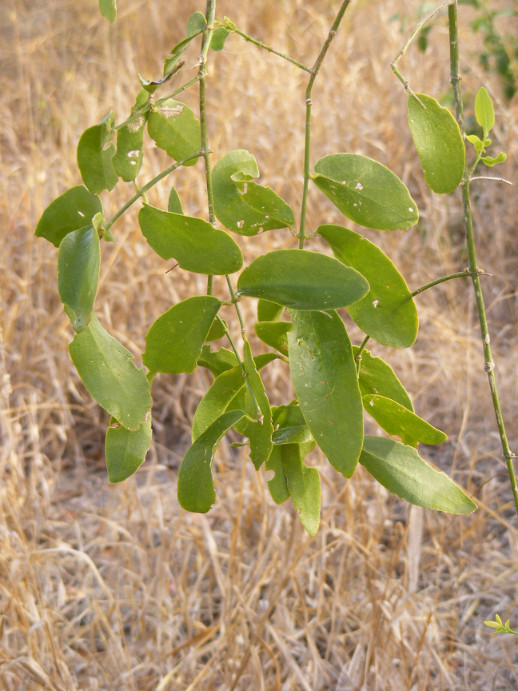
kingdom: Plantae
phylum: Tracheophyta
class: Magnoliopsida
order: Brassicales
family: Salvadoraceae
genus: Salvadora
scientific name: Salvadora persica
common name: Toothbrushtree
